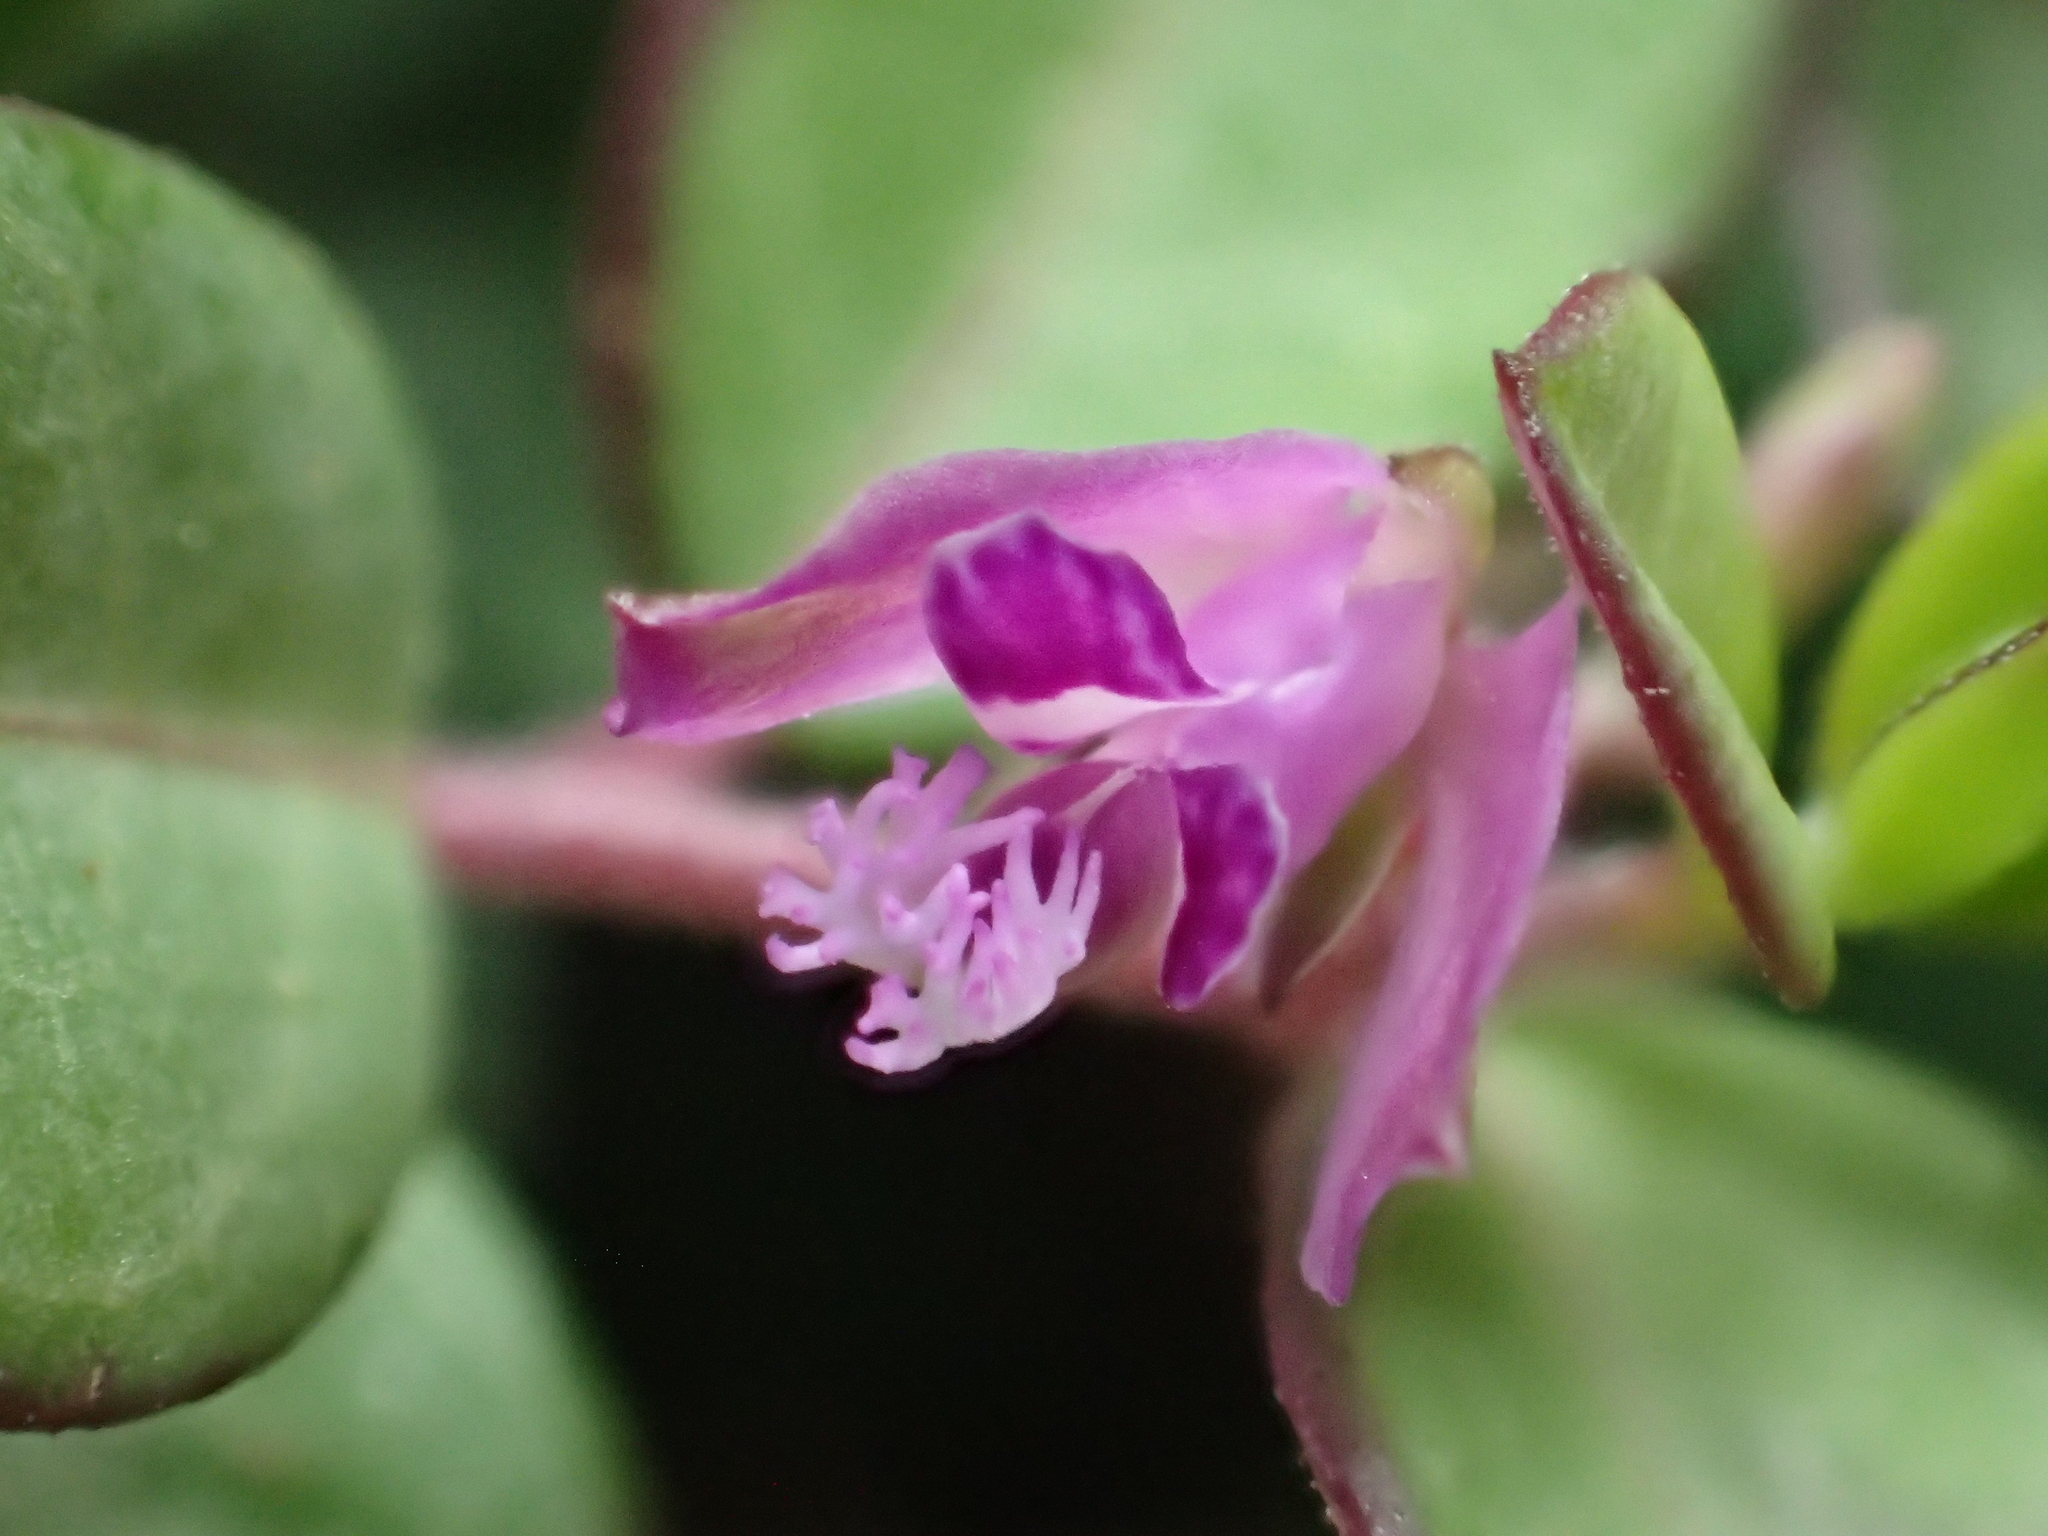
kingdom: Plantae
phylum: Tracheophyta
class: Magnoliopsida
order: Fabales
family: Polygalaceae
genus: Polygala
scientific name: Polygala japonica
